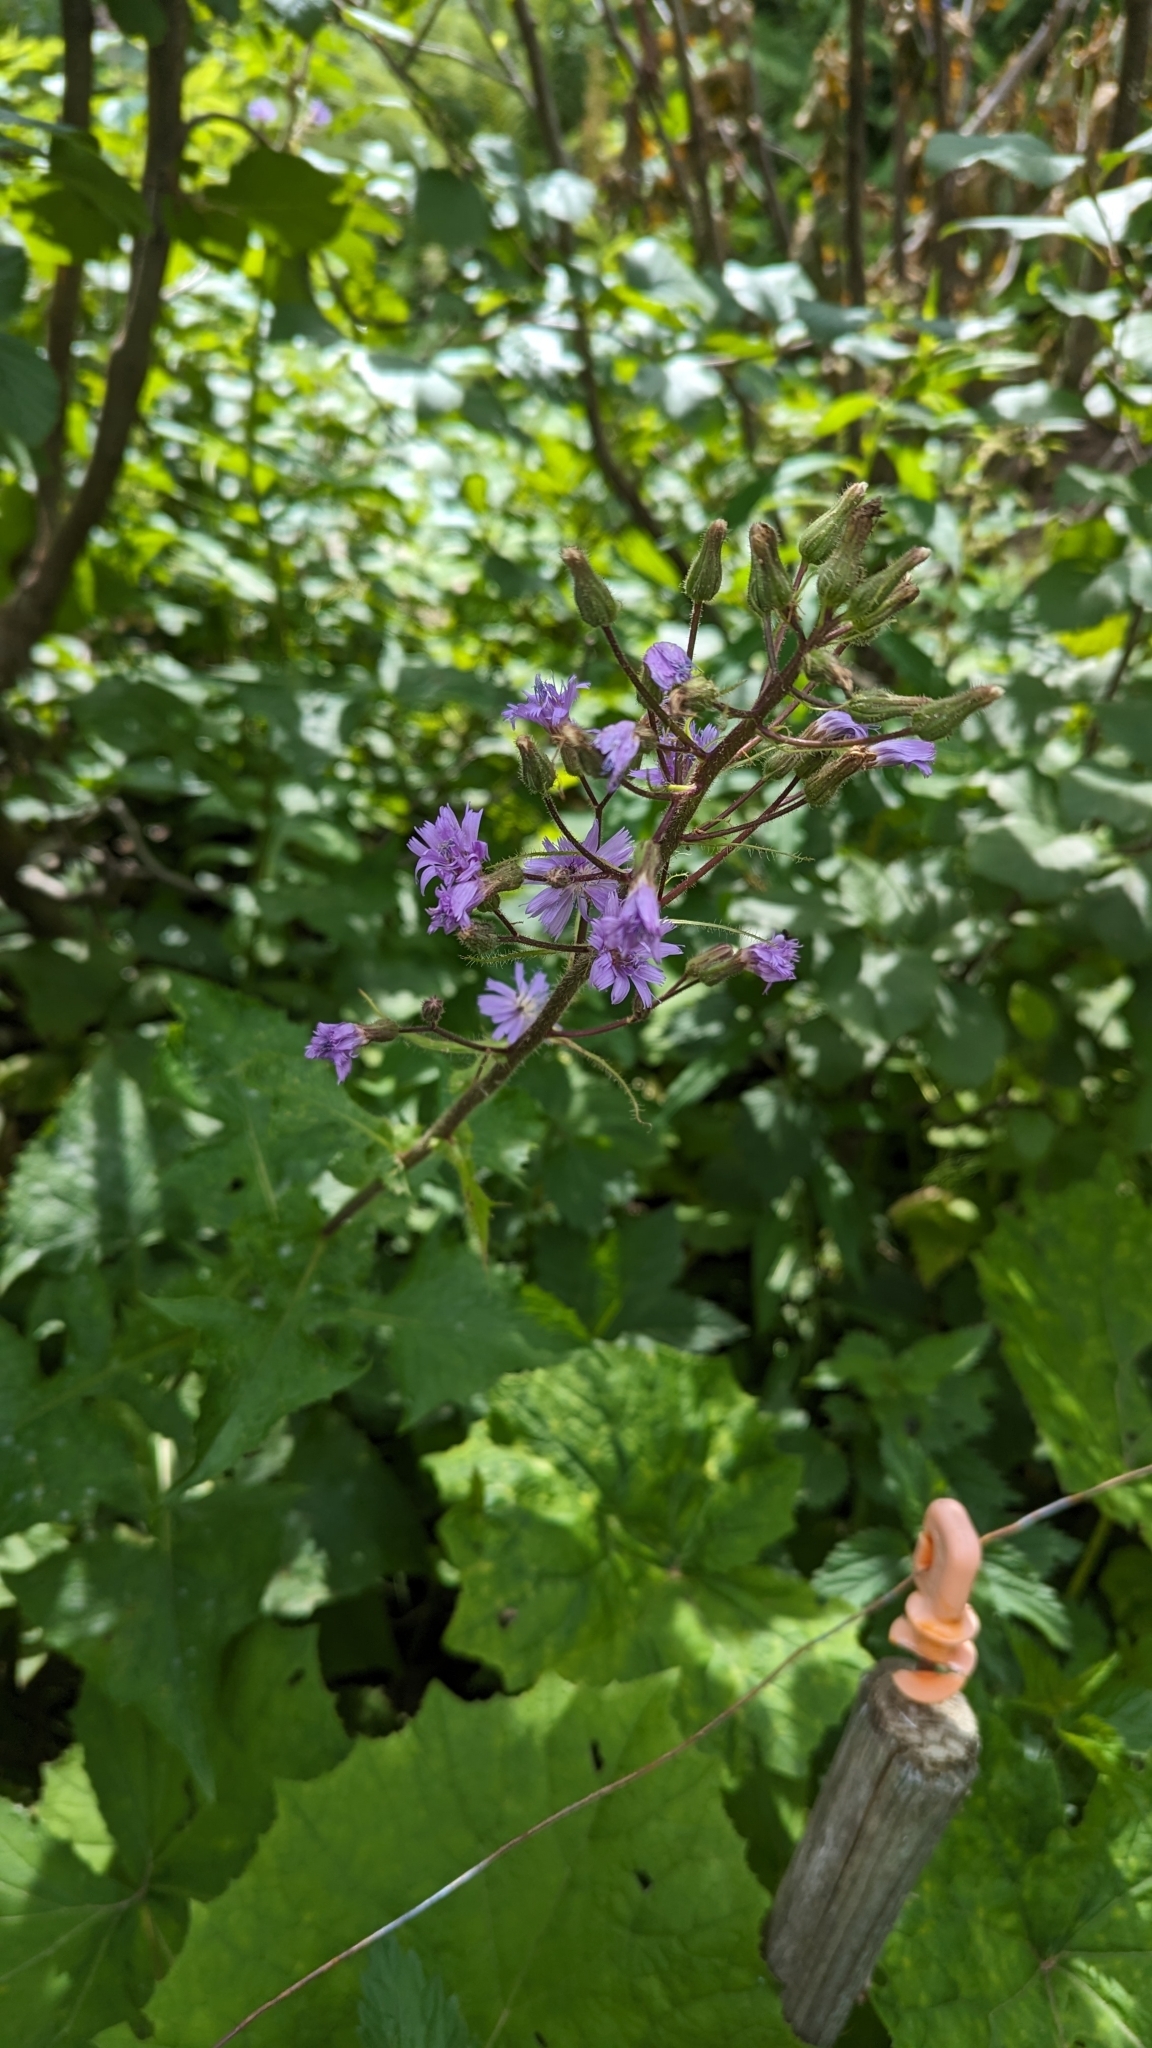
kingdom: Plantae
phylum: Tracheophyta
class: Magnoliopsida
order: Asterales
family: Asteraceae
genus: Cicerbita
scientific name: Cicerbita alpina
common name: Alpine blue-sow-thistle
